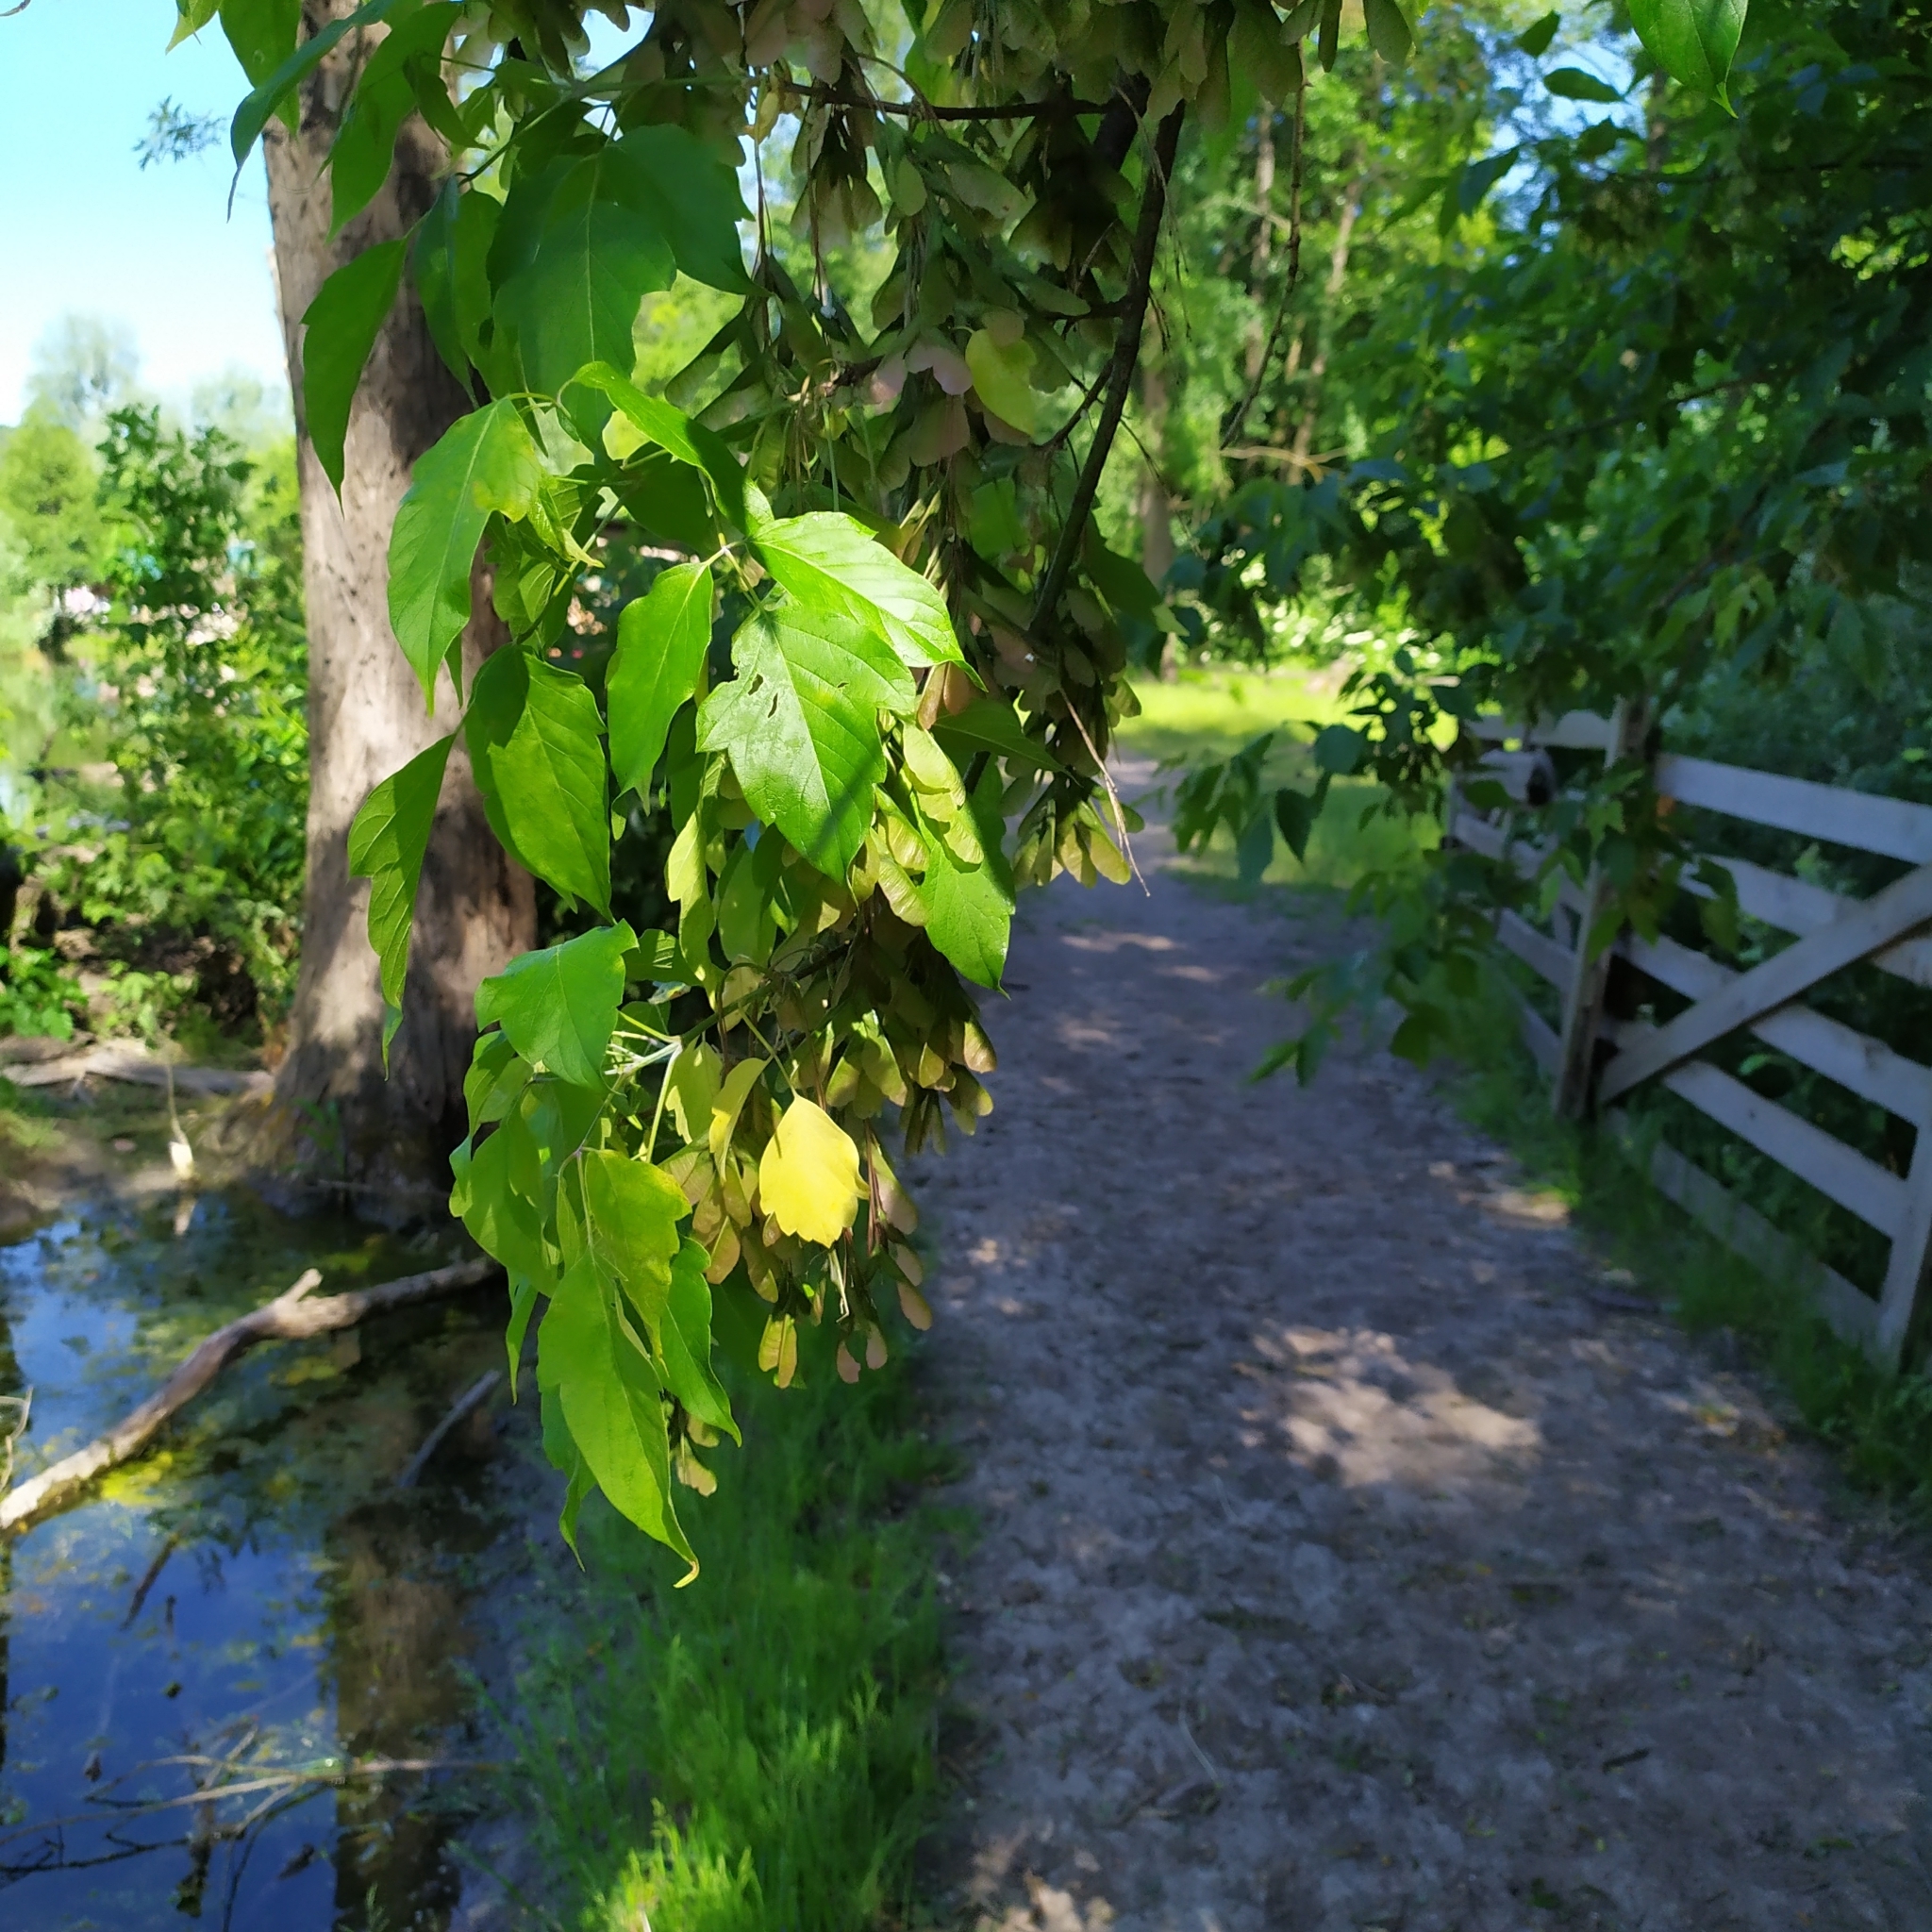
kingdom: Plantae
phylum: Tracheophyta
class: Magnoliopsida
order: Sapindales
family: Sapindaceae
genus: Acer
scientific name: Acer negundo
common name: Ashleaf maple
